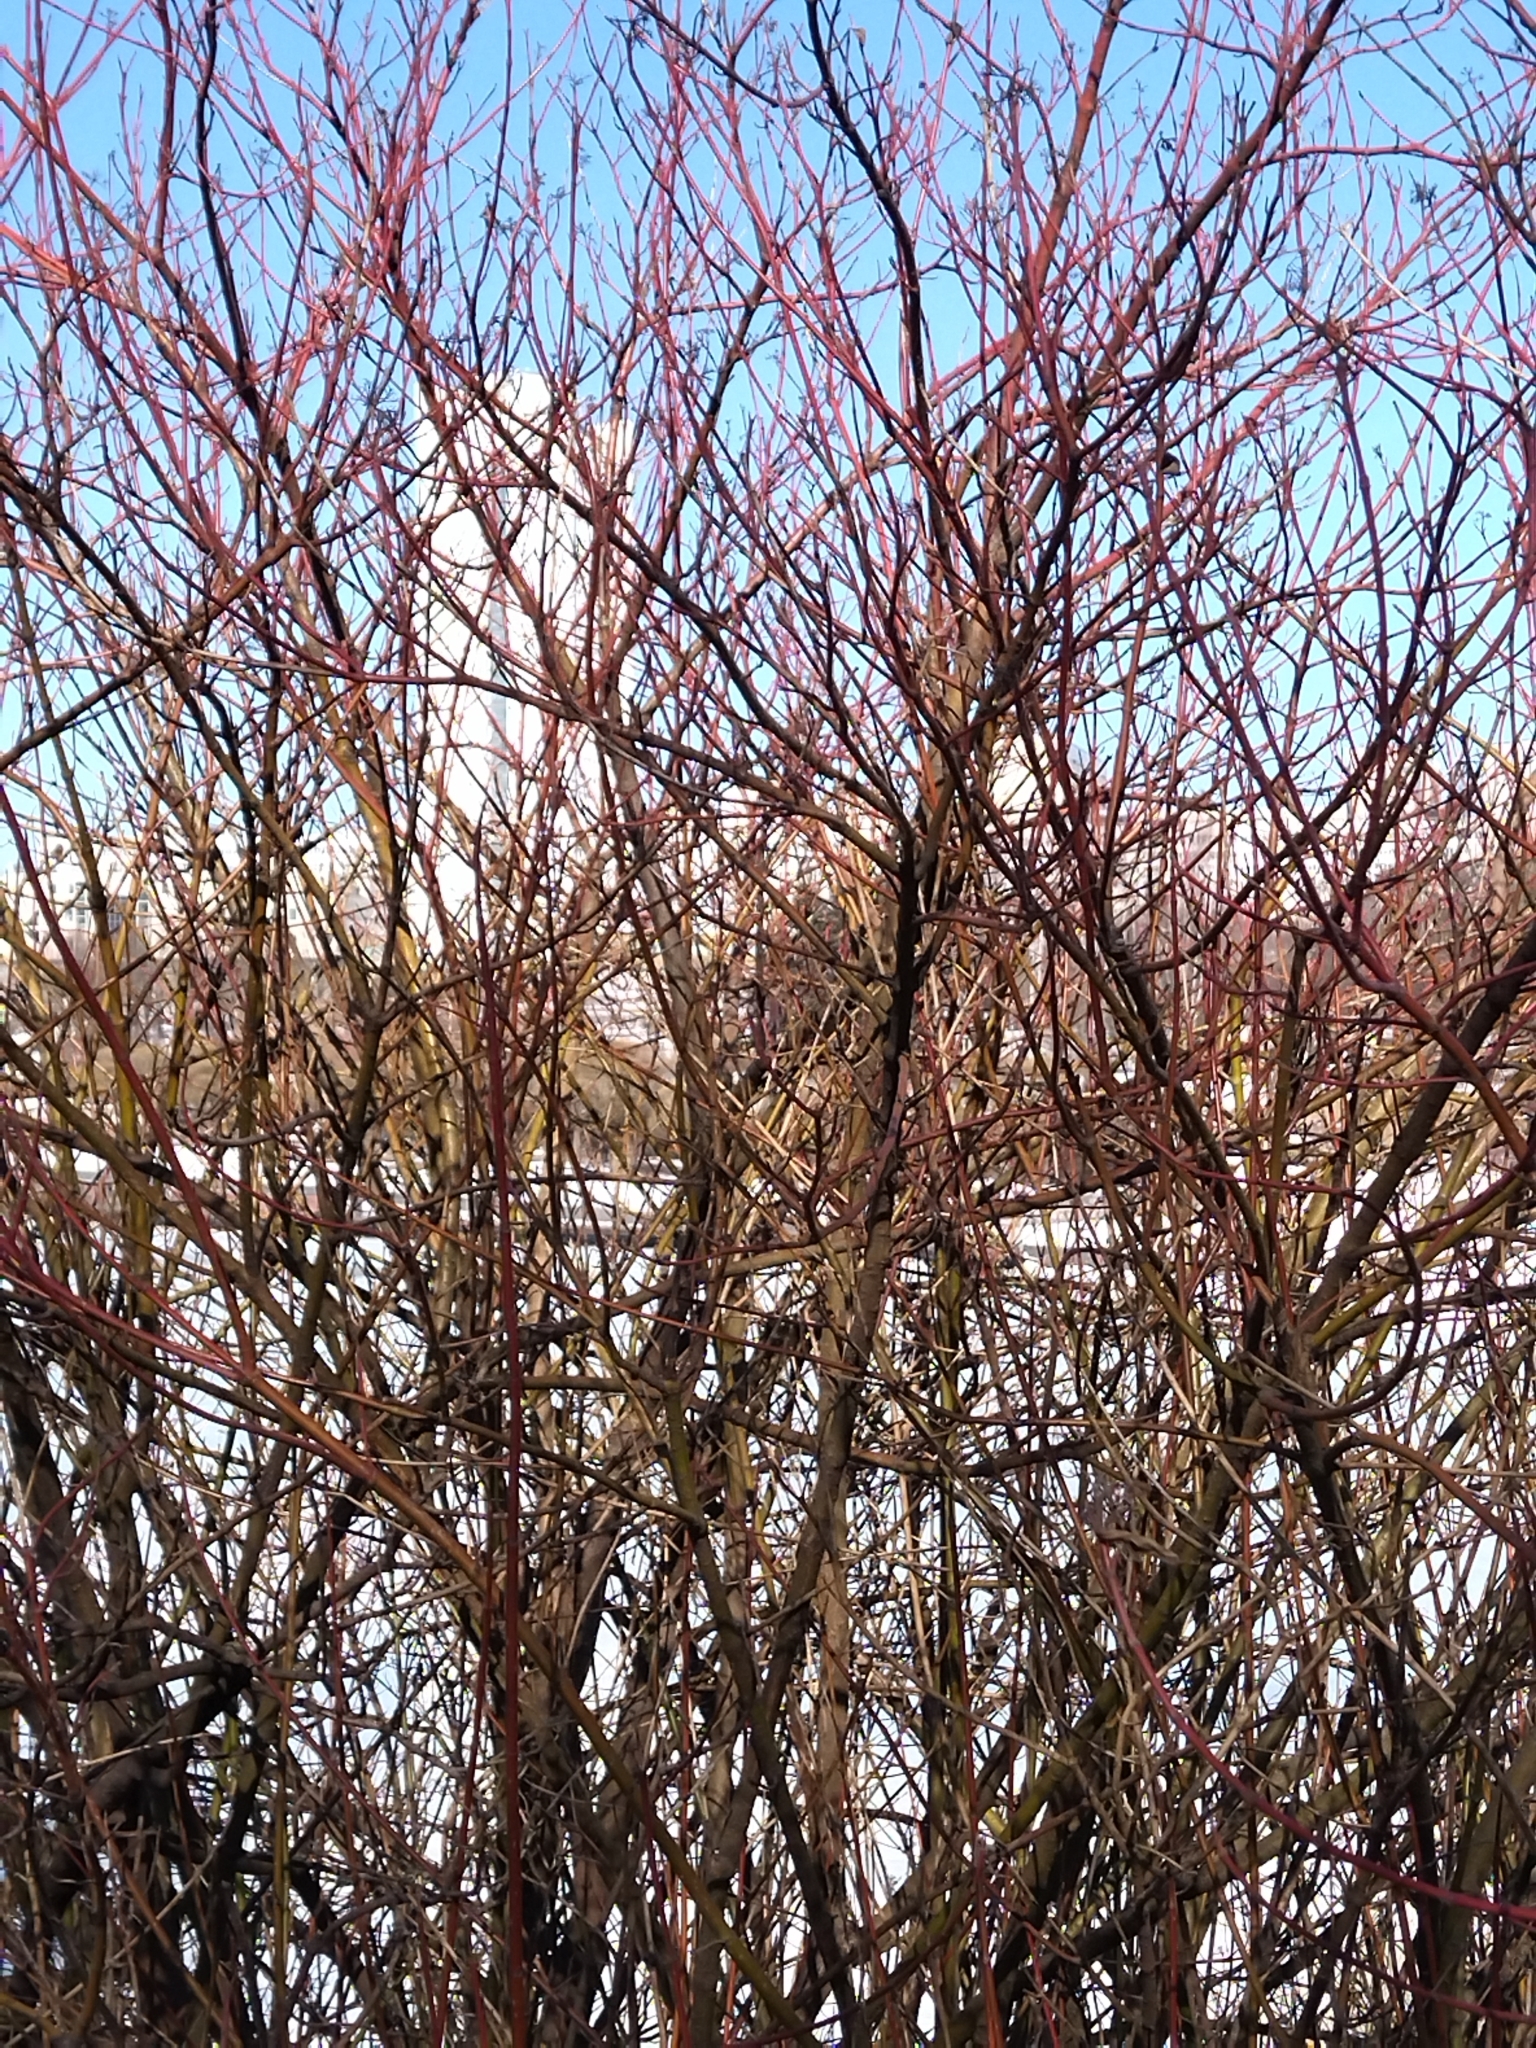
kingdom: Plantae
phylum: Tracheophyta
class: Magnoliopsida
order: Cornales
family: Cornaceae
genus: Cornus
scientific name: Cornus alba
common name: White dogwood
